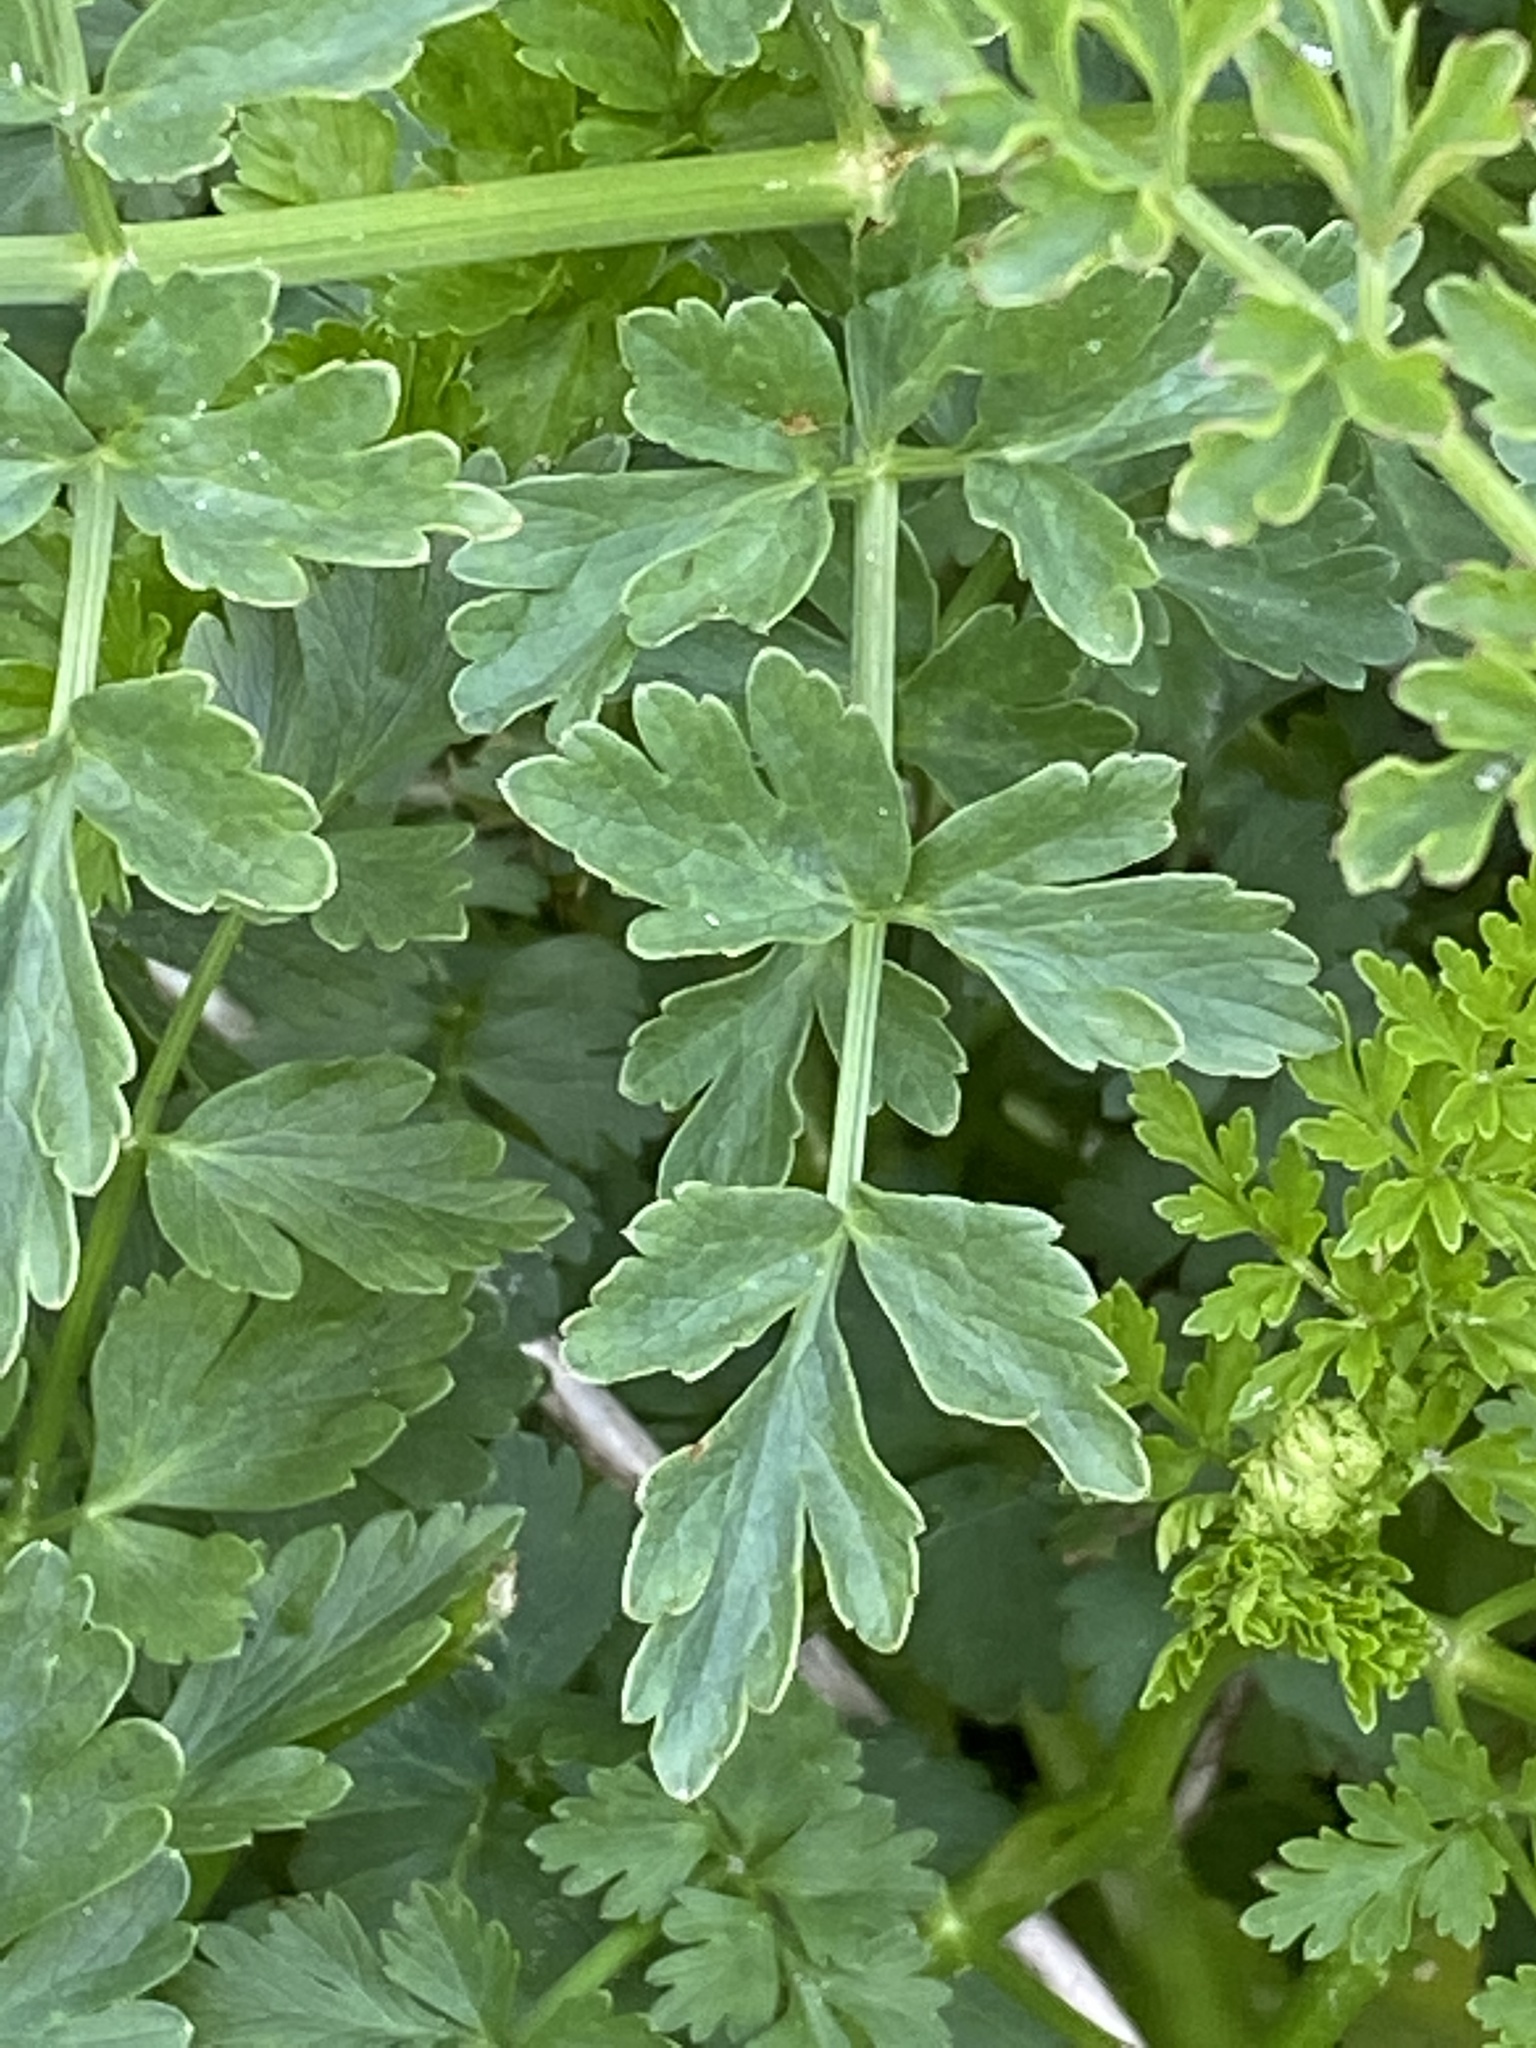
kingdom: Plantae
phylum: Tracheophyta
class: Magnoliopsida
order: Apiales
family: Apiaceae
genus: Oenanthe
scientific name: Oenanthe crocata
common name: Hemlock water-dropwort
